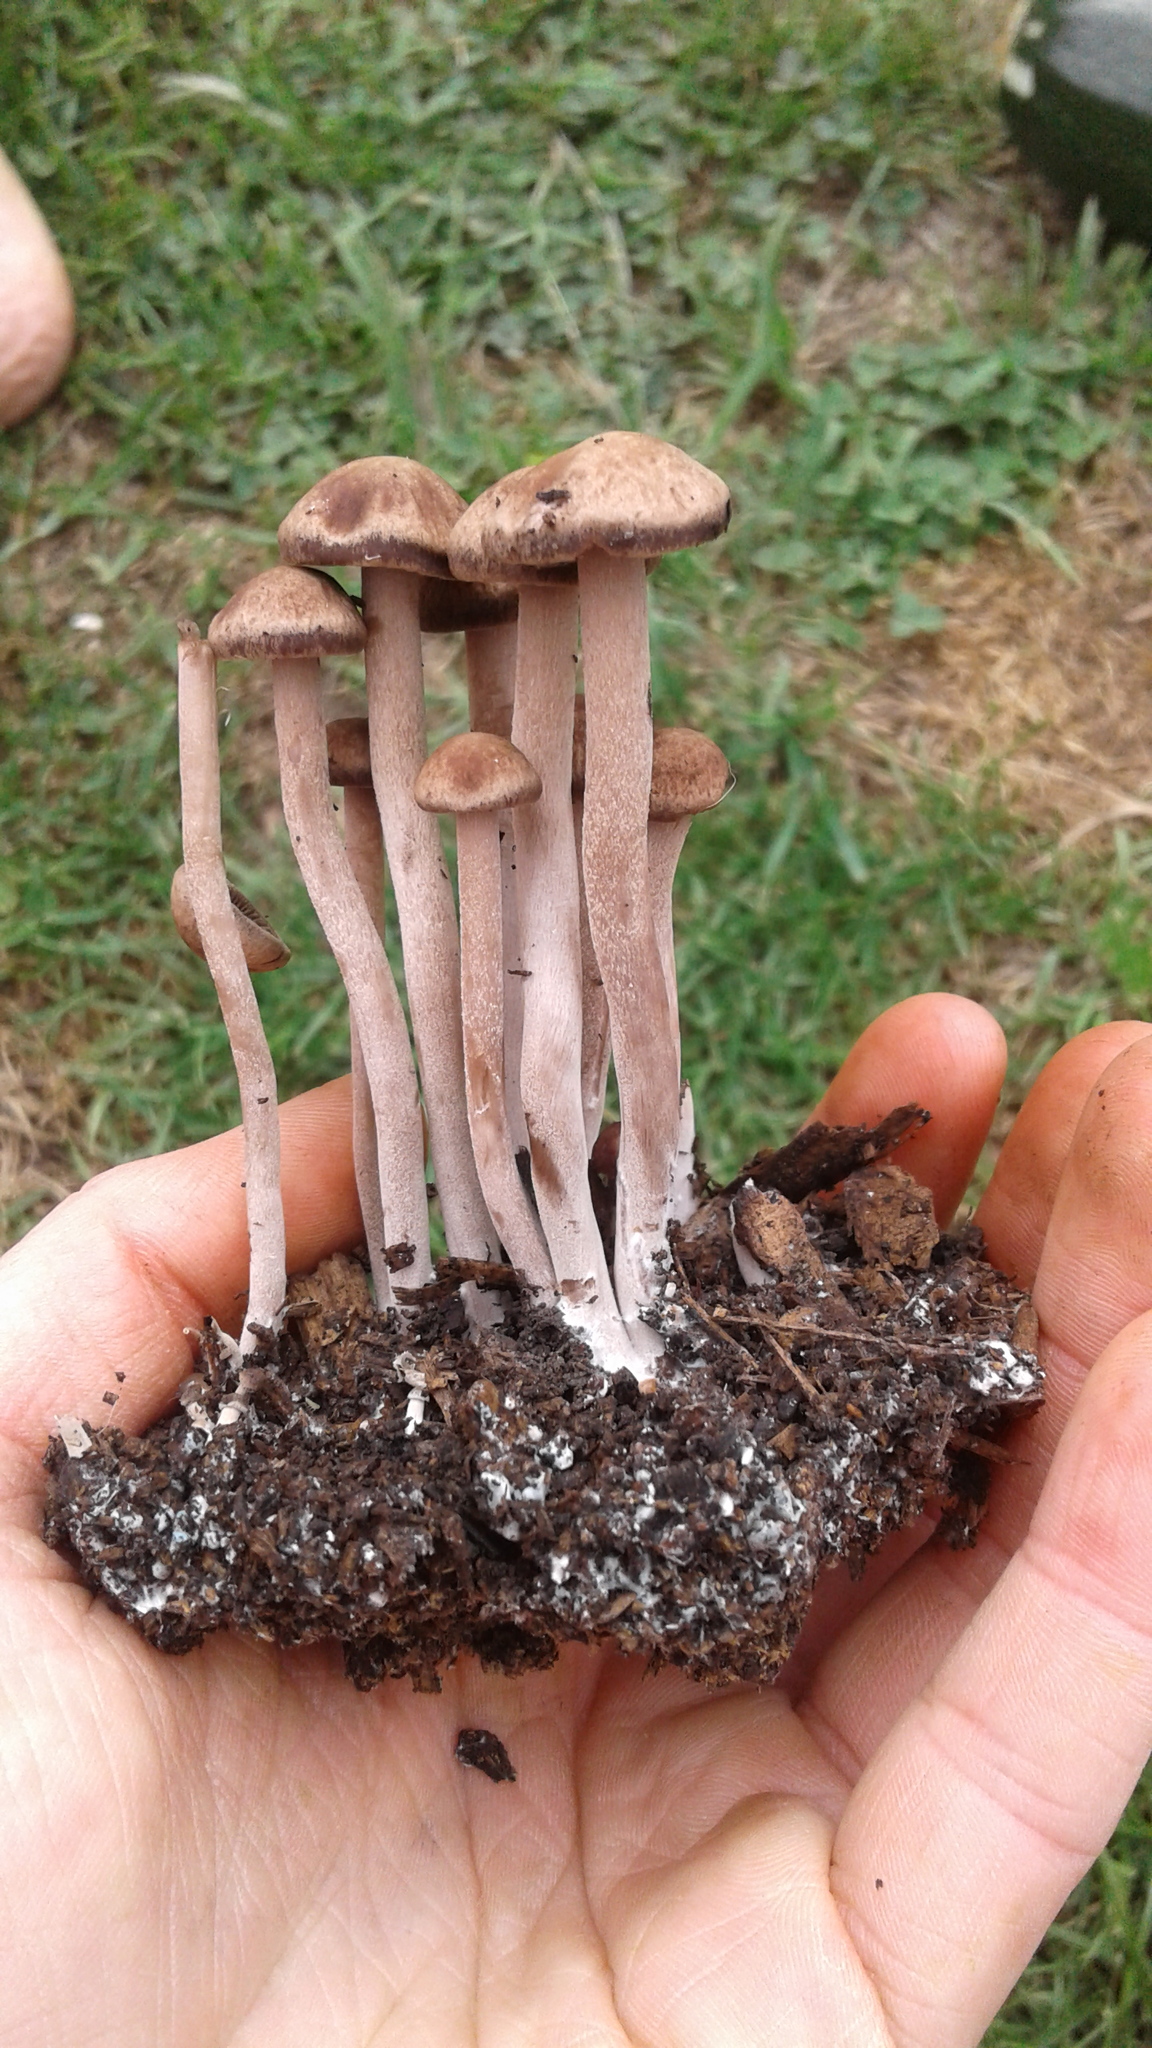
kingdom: Fungi
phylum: Basidiomycota
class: Agaricomycetes
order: Agaricales
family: Bolbitiaceae
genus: Panaeolus
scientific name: Panaeolus cinctulus
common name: Banded mottlegill
